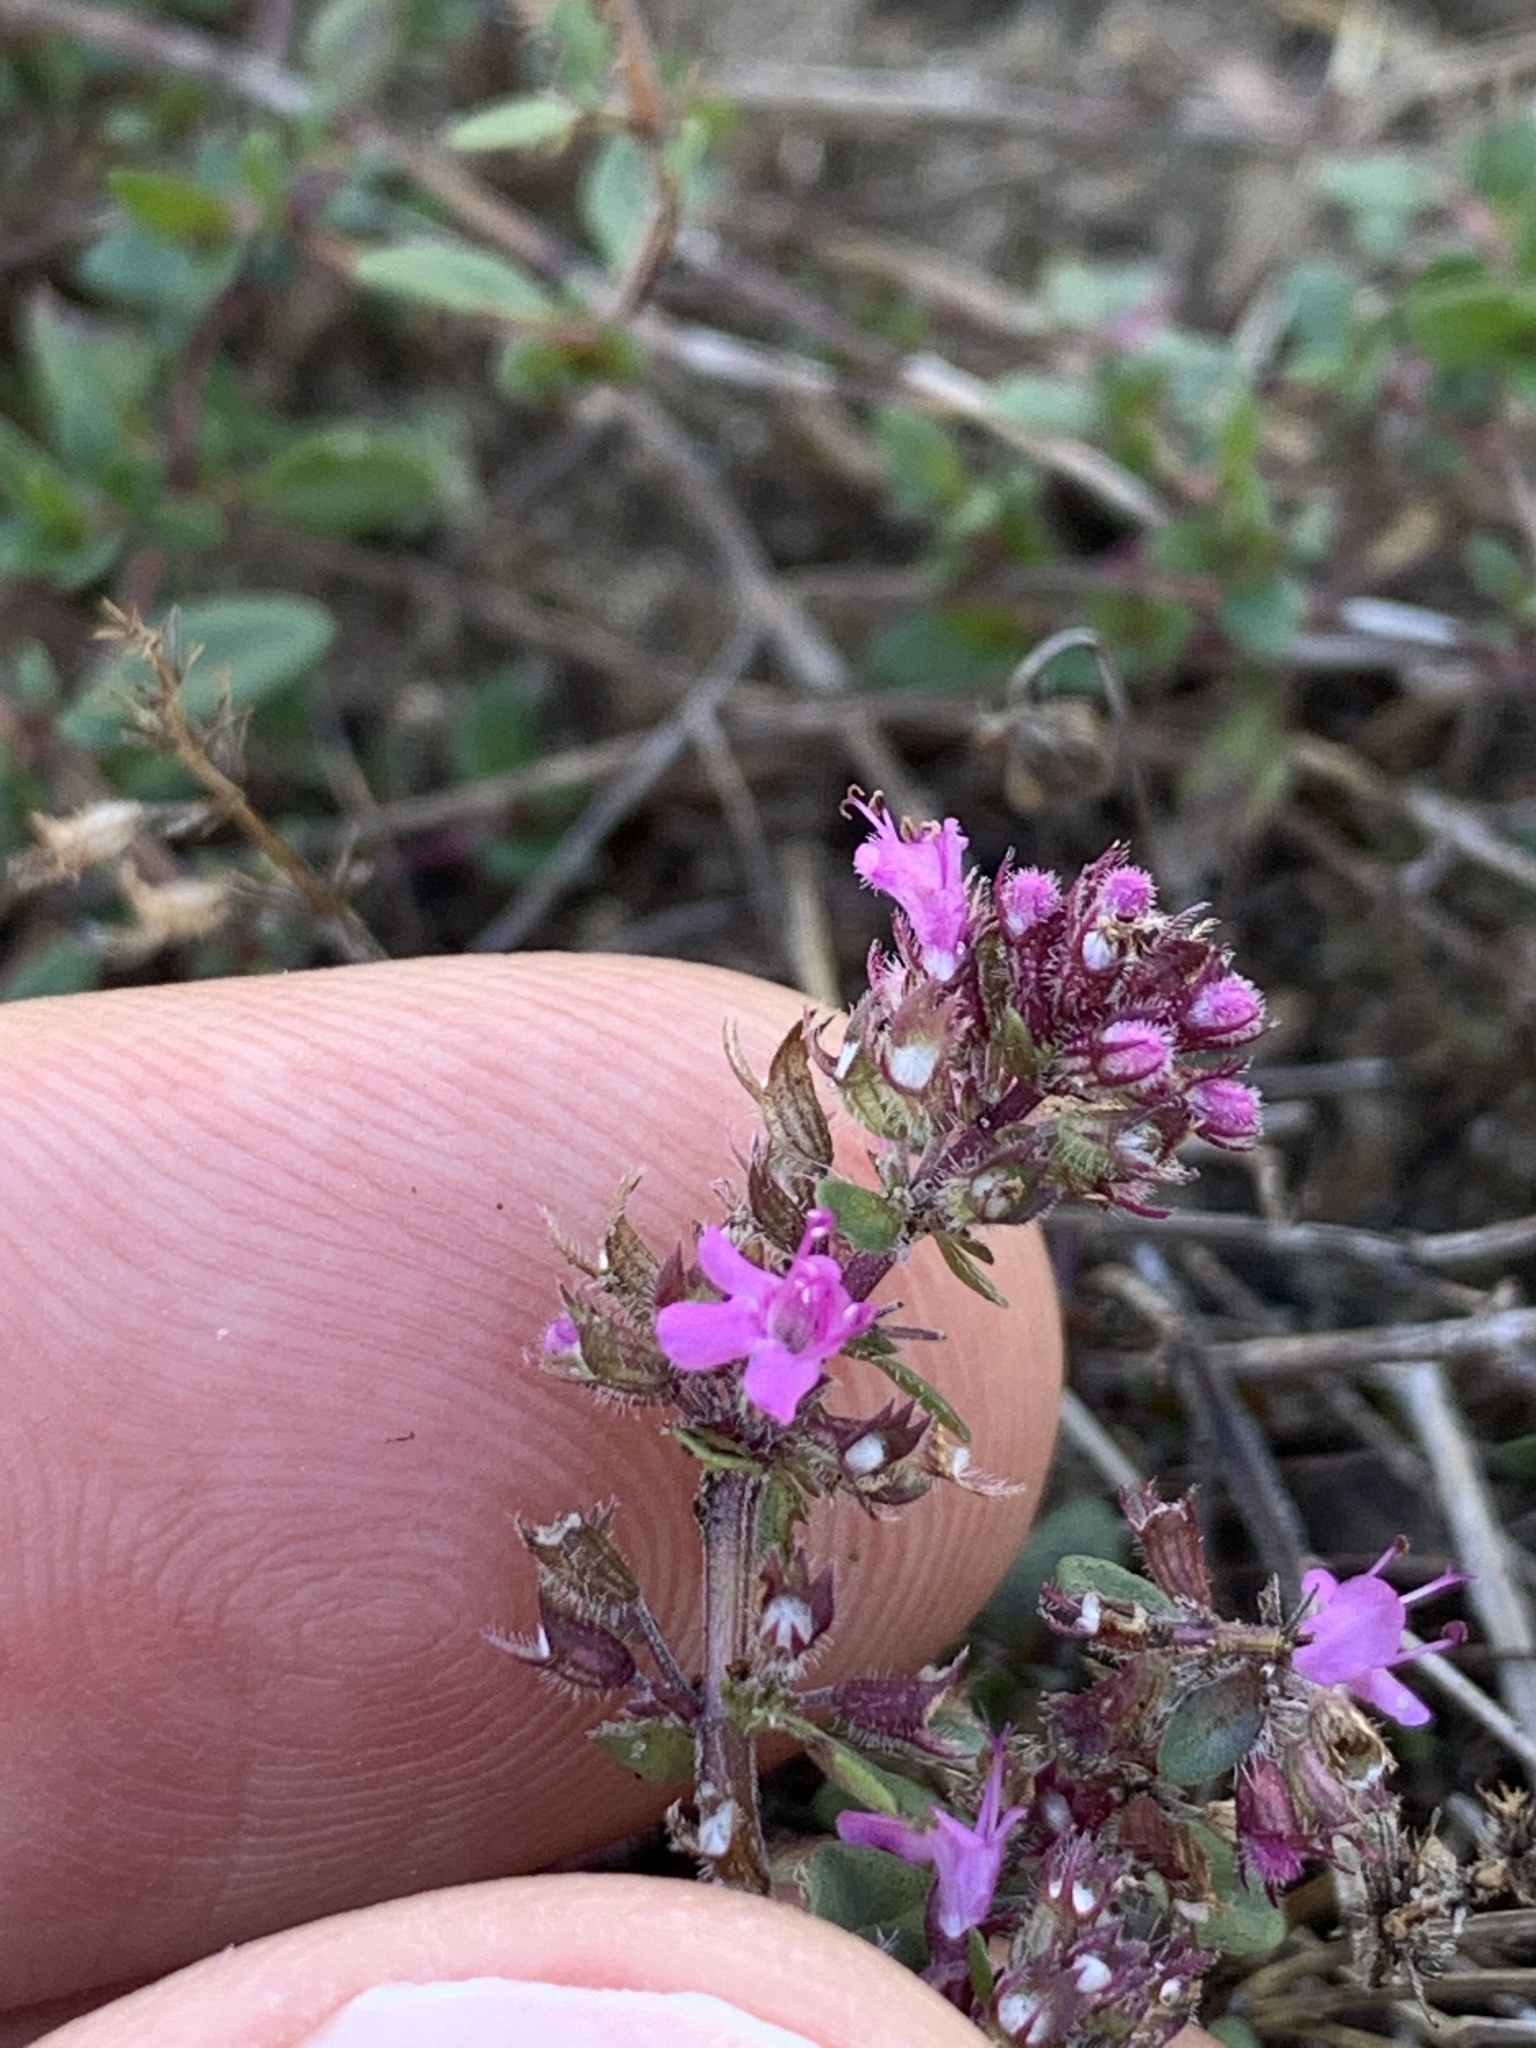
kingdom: Plantae
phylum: Tracheophyta
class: Magnoliopsida
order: Lamiales
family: Lamiaceae
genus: Thymus
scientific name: Thymus pulegioides
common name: Large thyme
